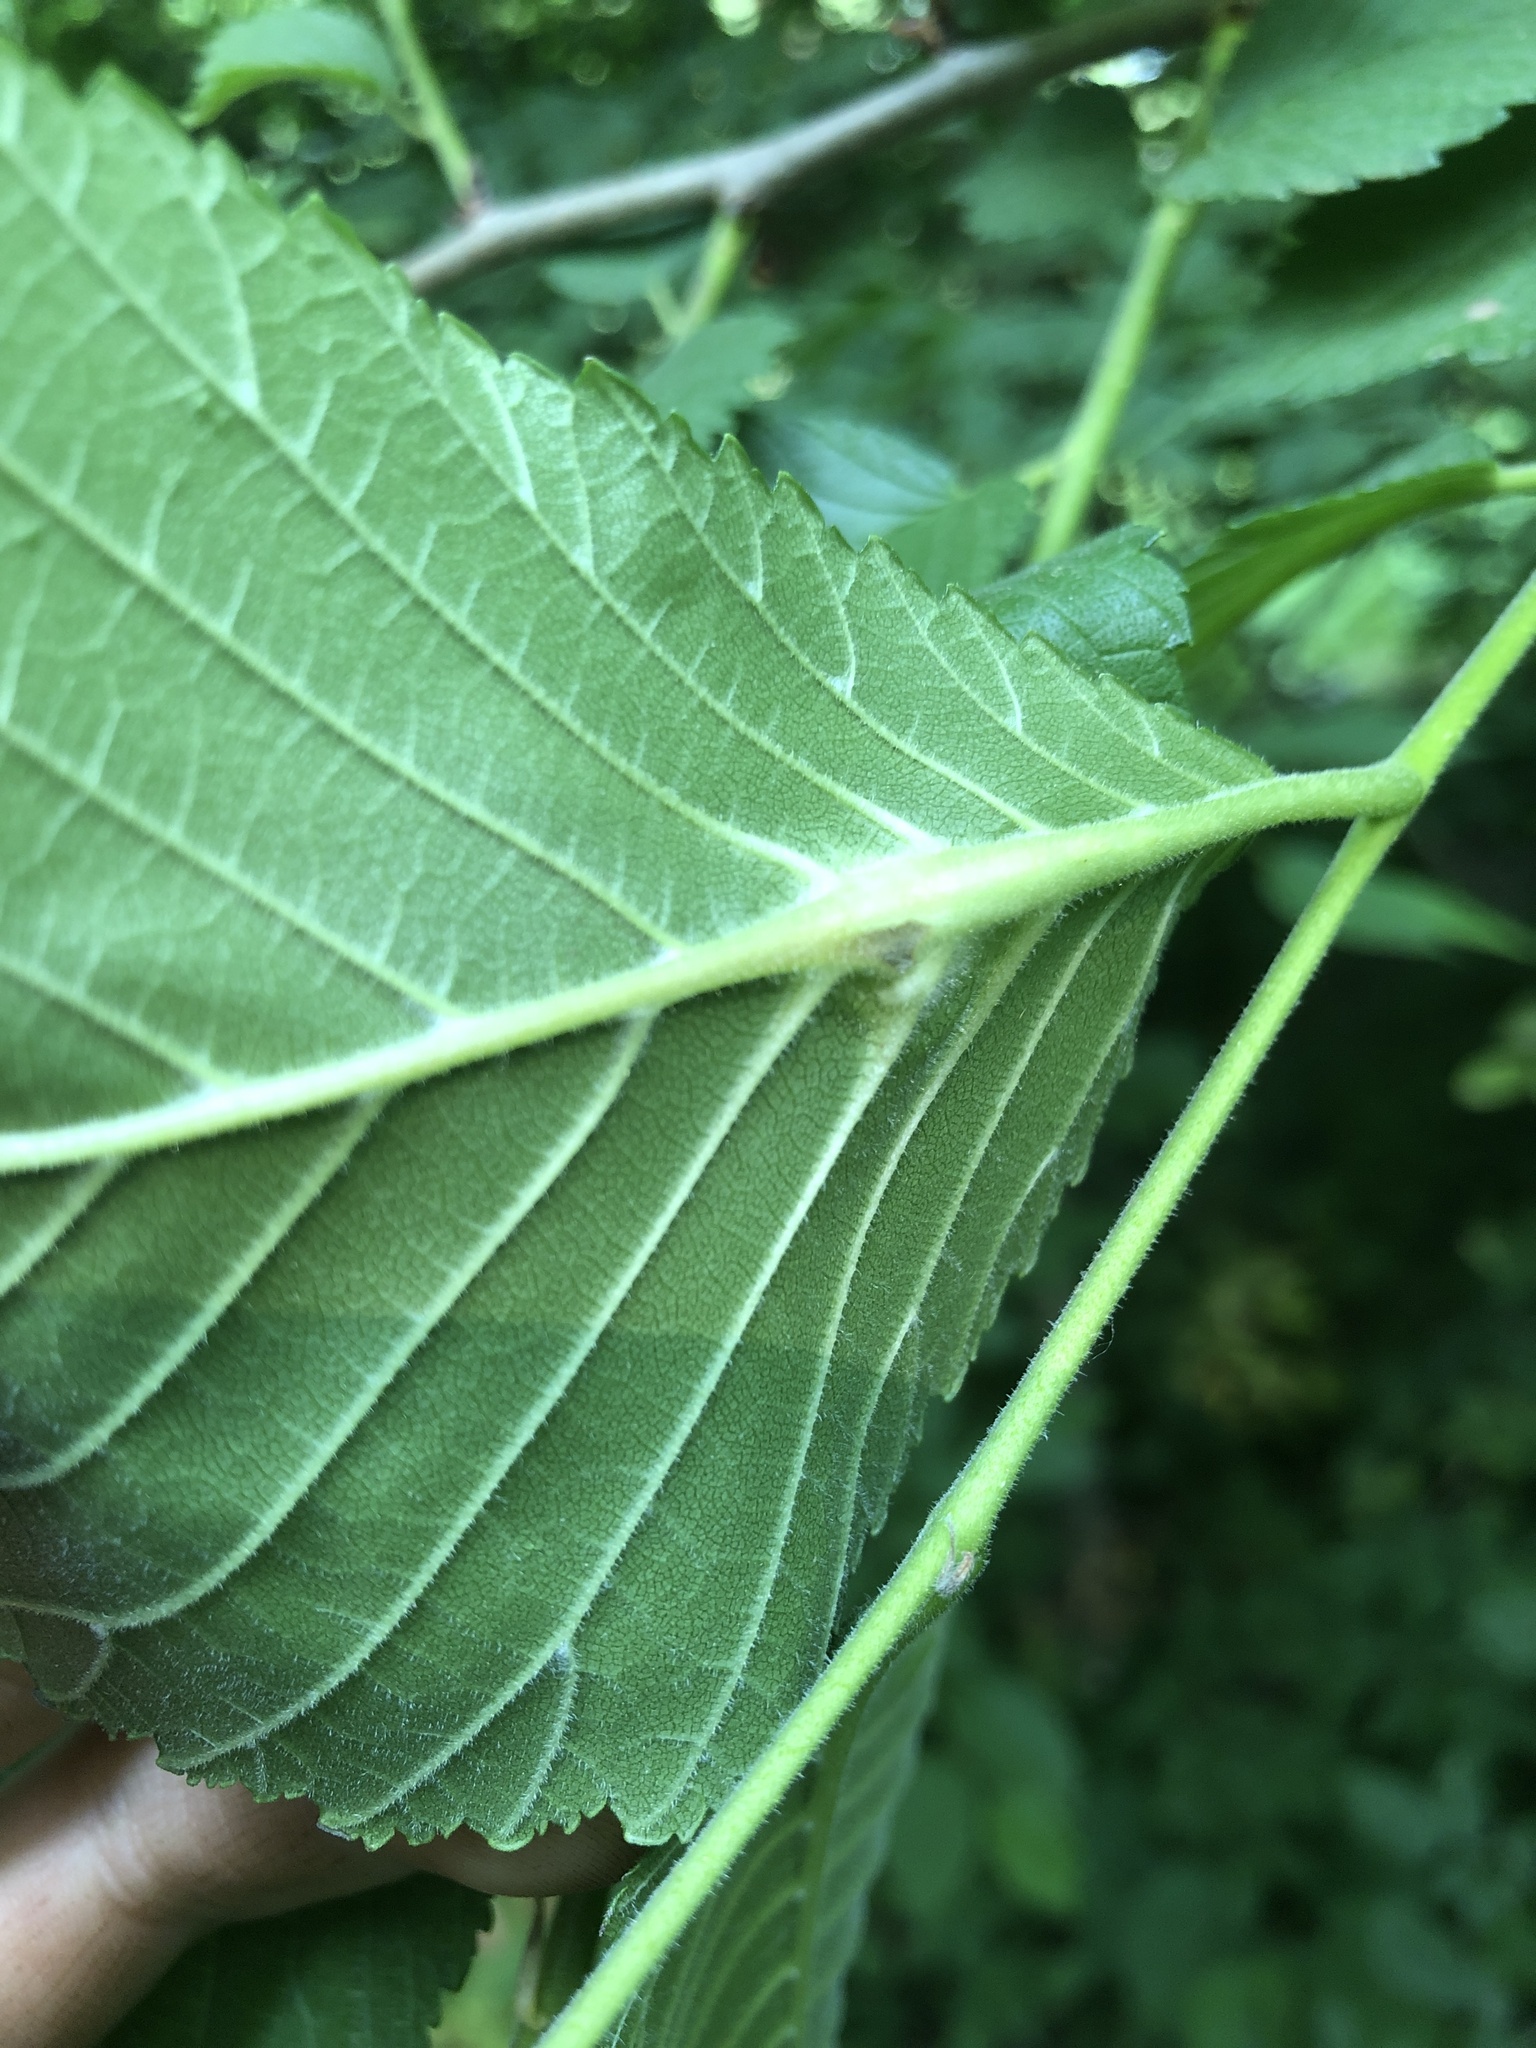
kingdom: Animalia
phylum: Arthropoda
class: Insecta
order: Hemiptera
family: Aphididae
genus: Kaltenbachiella
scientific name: Kaltenbachiella ulmifusa
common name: Elm pouchgall aphid
